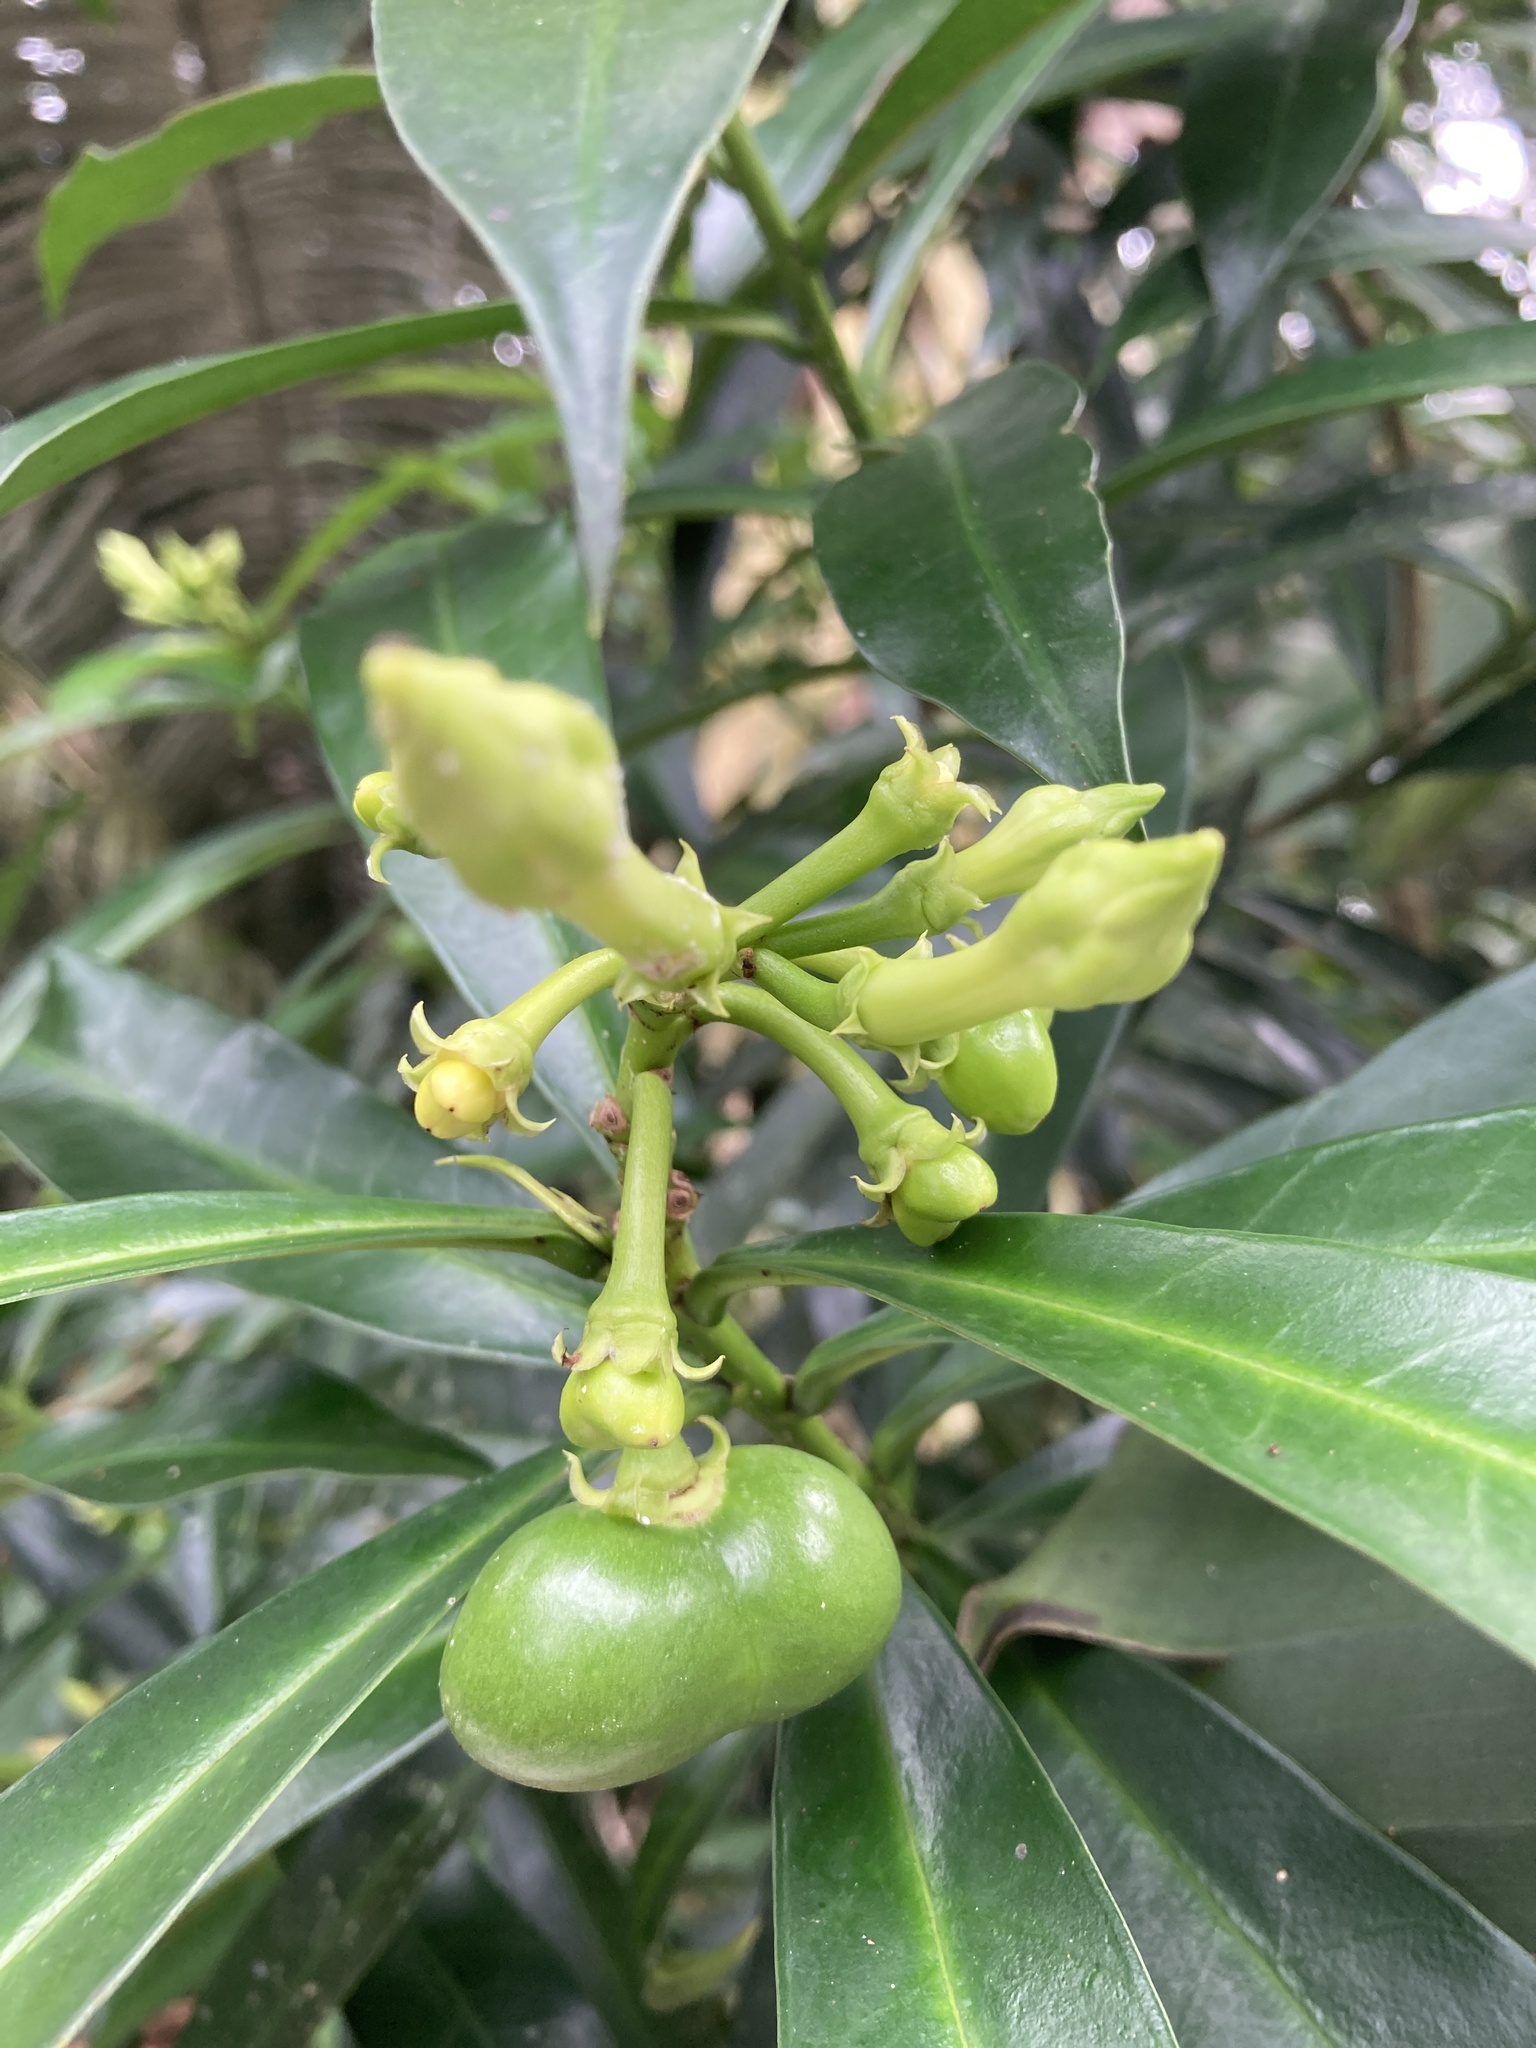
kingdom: Plantae
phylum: Tracheophyta
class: Magnoliopsida
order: Gentianales
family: Apocynaceae
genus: Thevetia
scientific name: Thevetia ahouai
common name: Broadleaf thevetia
